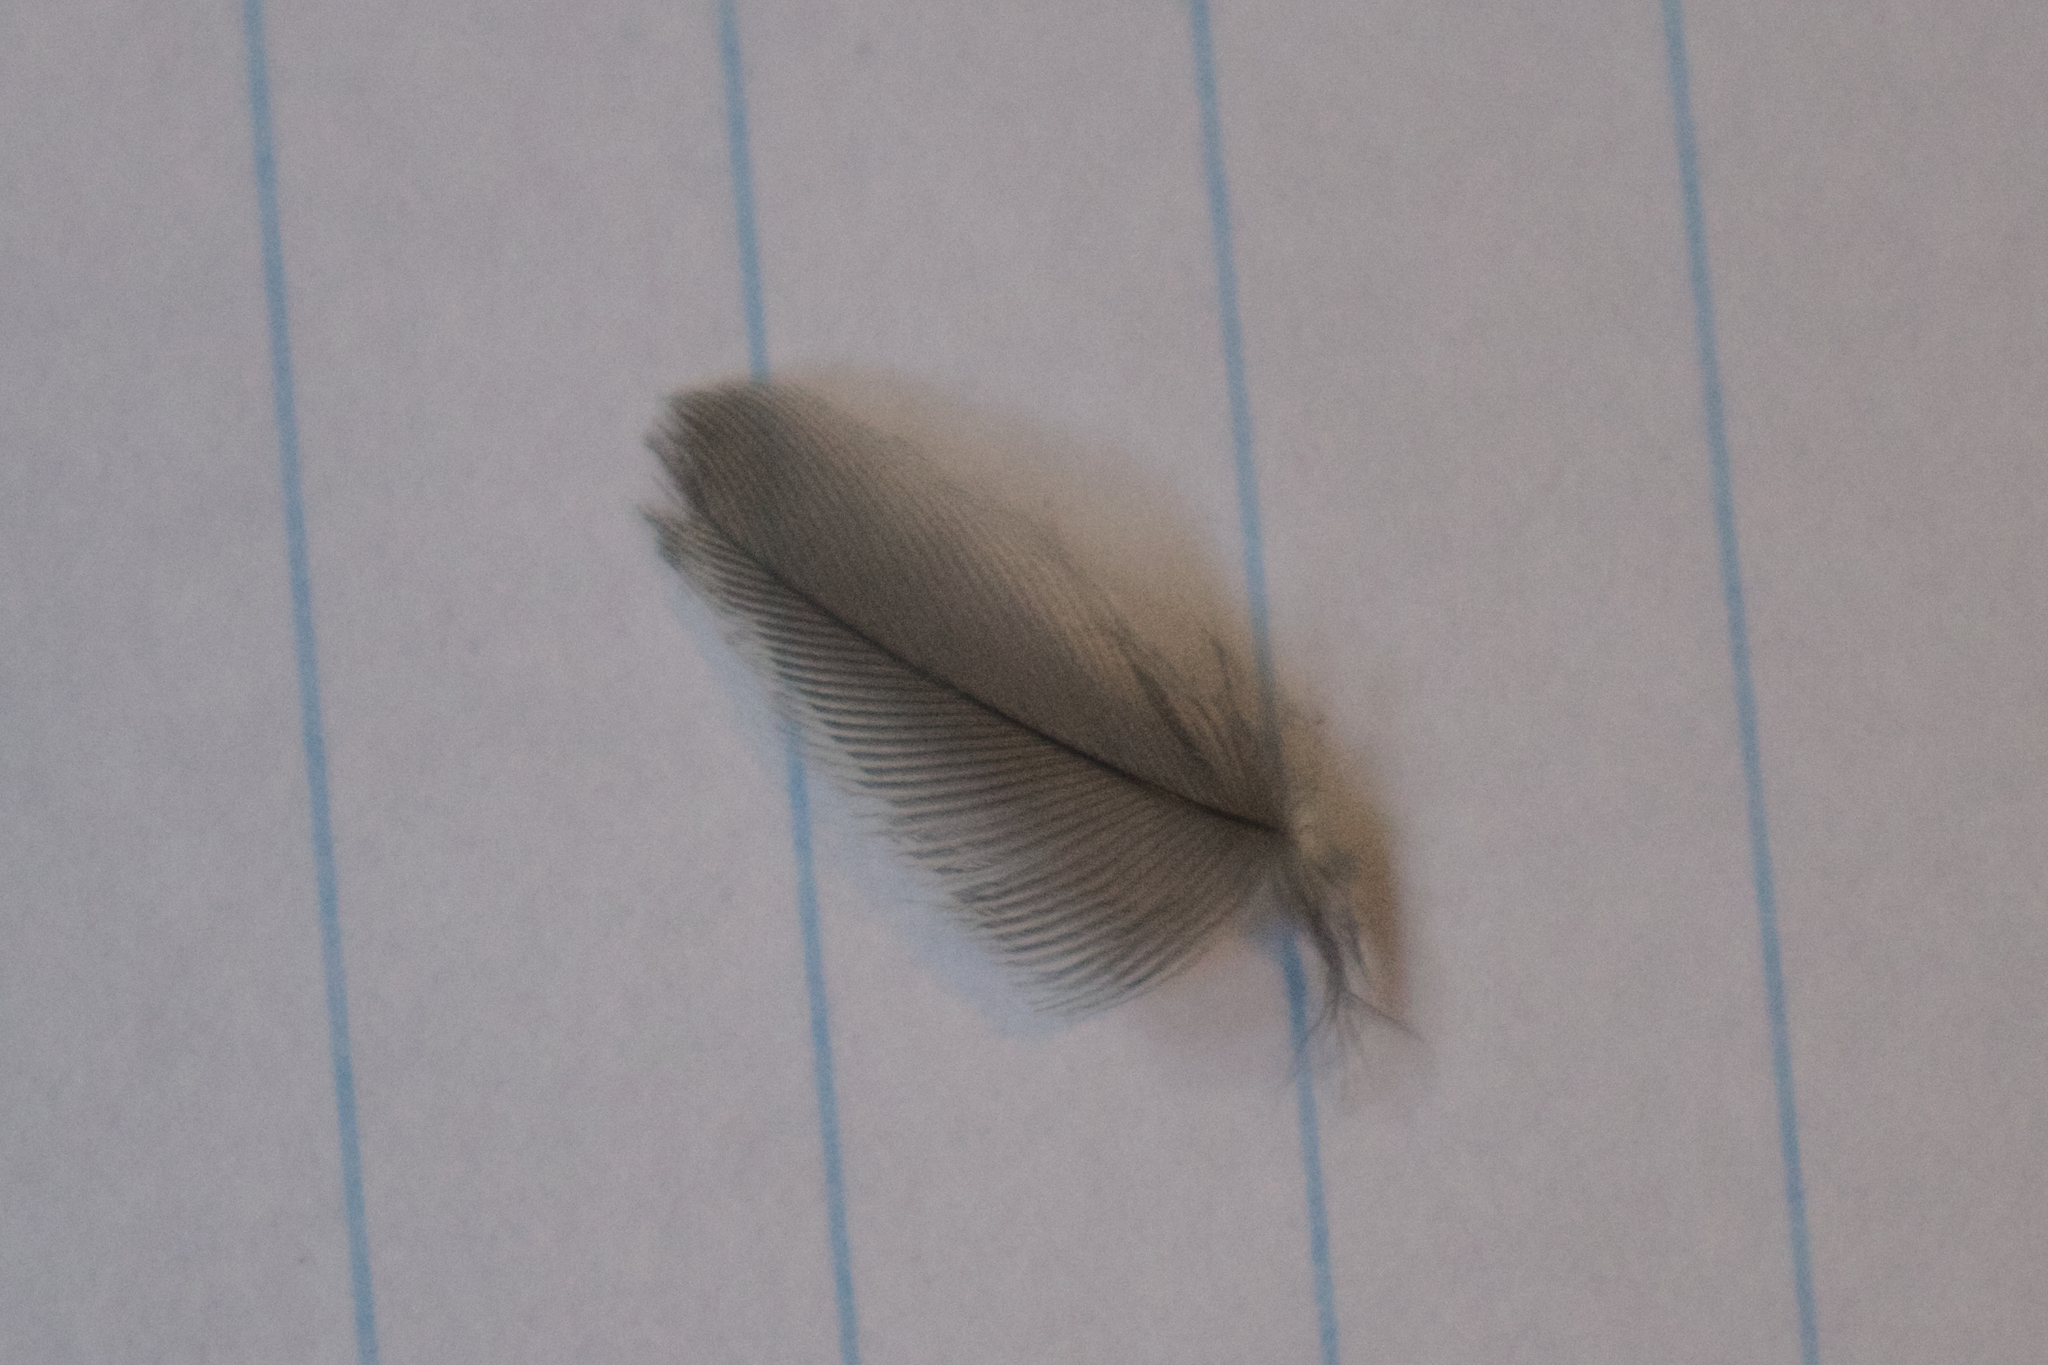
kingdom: Animalia
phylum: Chordata
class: Aves
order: Apodiformes
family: Trochilidae
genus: Archilochus
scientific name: Archilochus colubris
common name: Ruby-throated hummingbird
